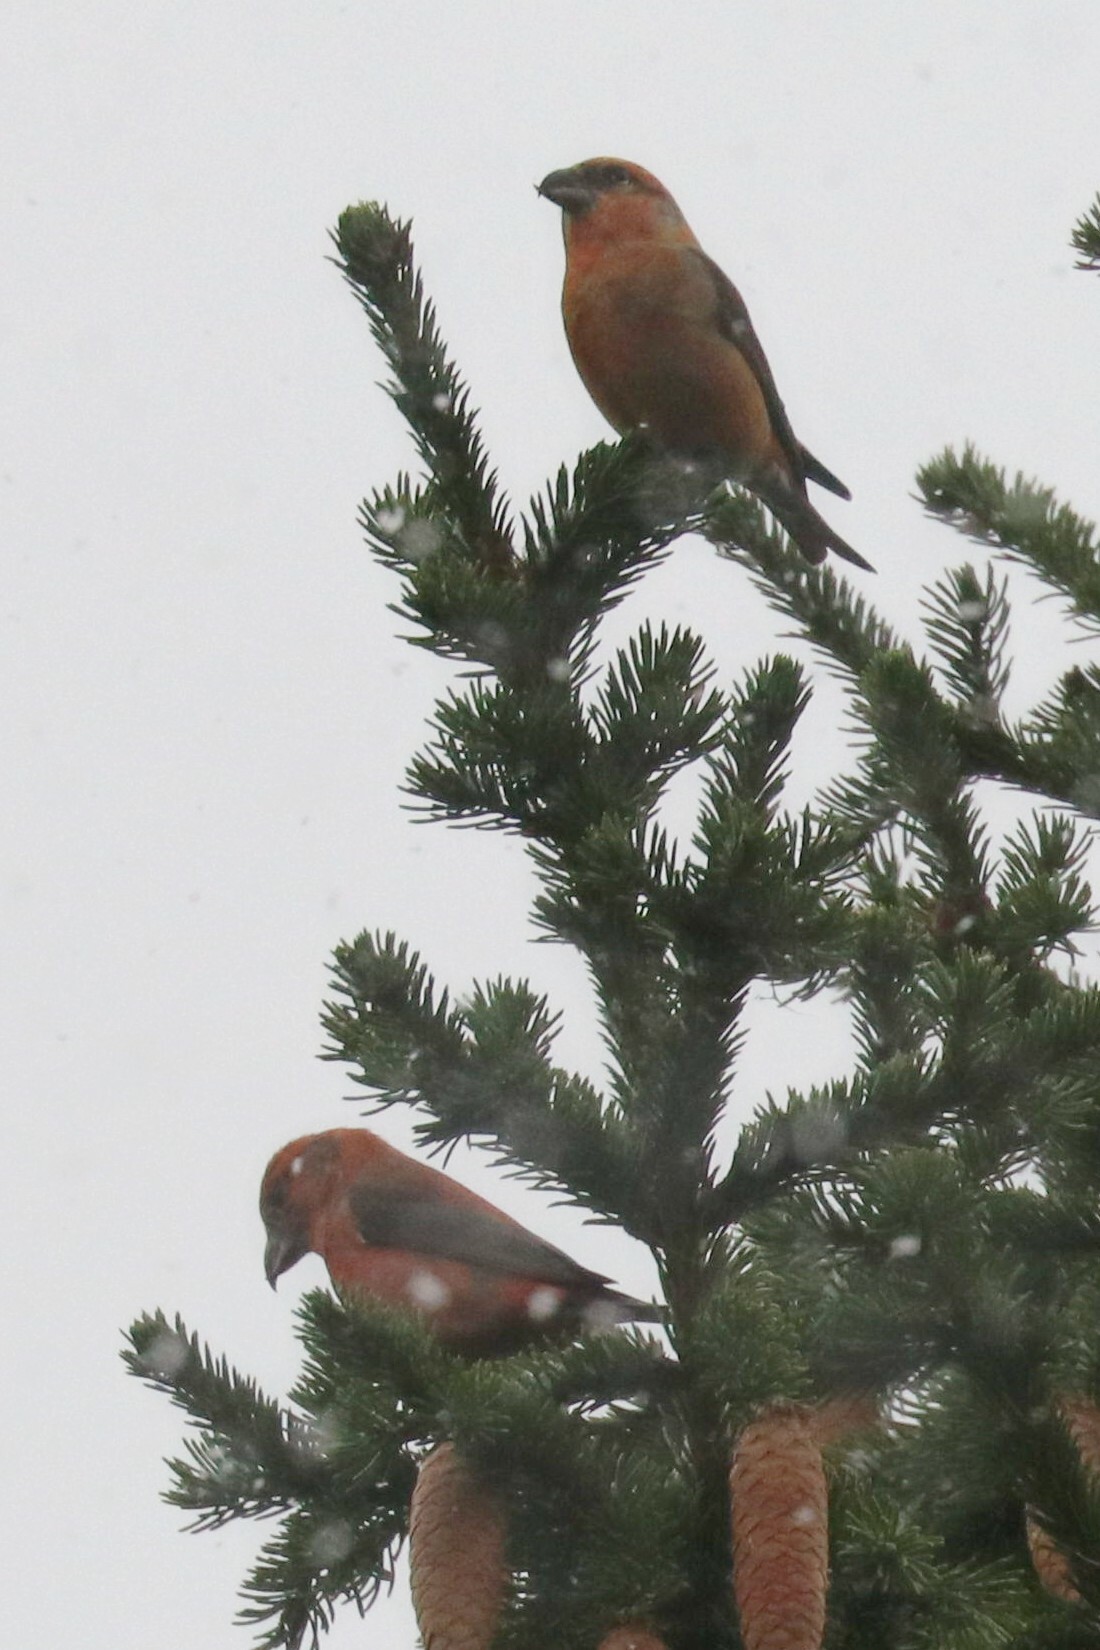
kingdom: Animalia
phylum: Chordata
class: Aves
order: Passeriformes
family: Fringillidae
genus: Loxia
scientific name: Loxia curvirostra
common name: Red crossbill
